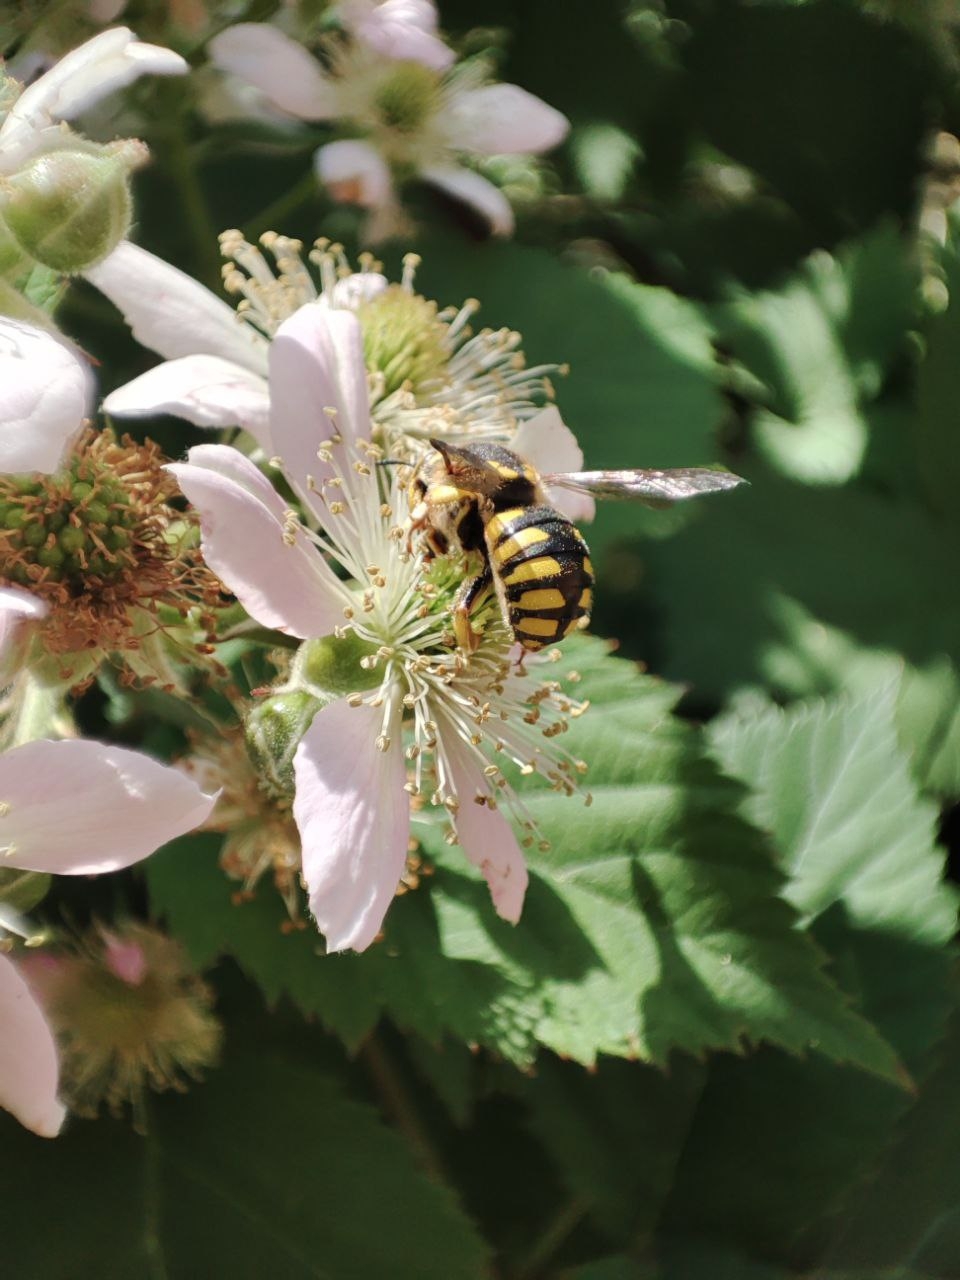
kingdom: Animalia
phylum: Arthropoda
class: Insecta
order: Hymenoptera
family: Megachilidae
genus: Anthidium
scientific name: Anthidium florentinum
